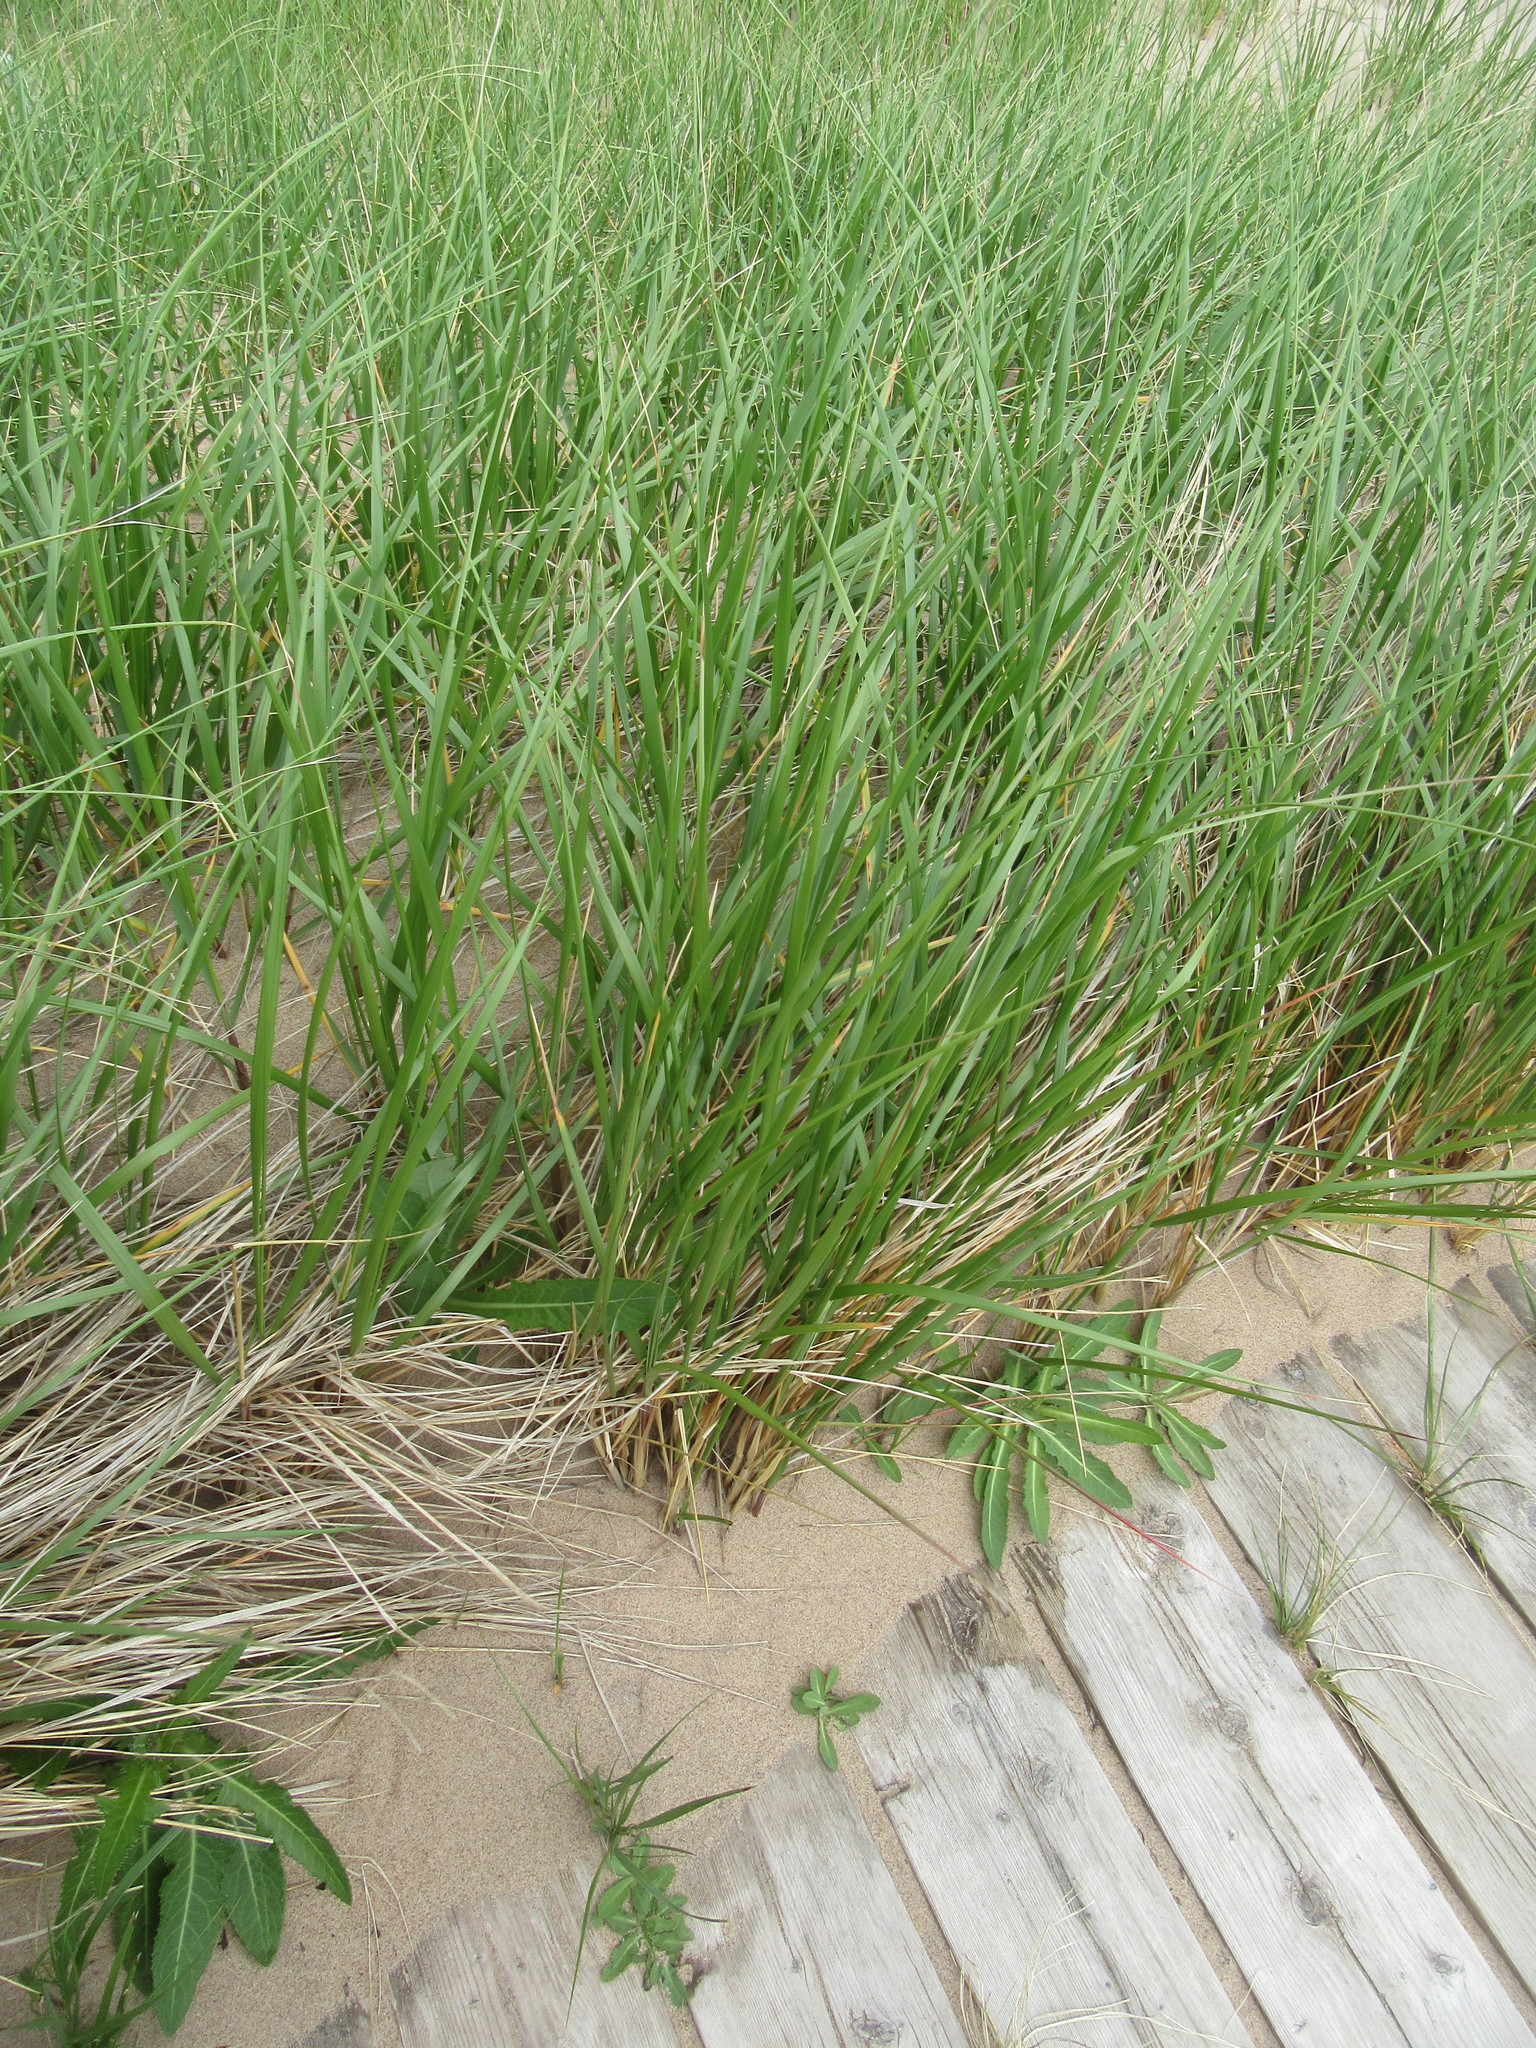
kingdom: Plantae
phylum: Tracheophyta
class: Liliopsida
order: Poales
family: Poaceae
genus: Calamagrostis
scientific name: Calamagrostis breviligulata
